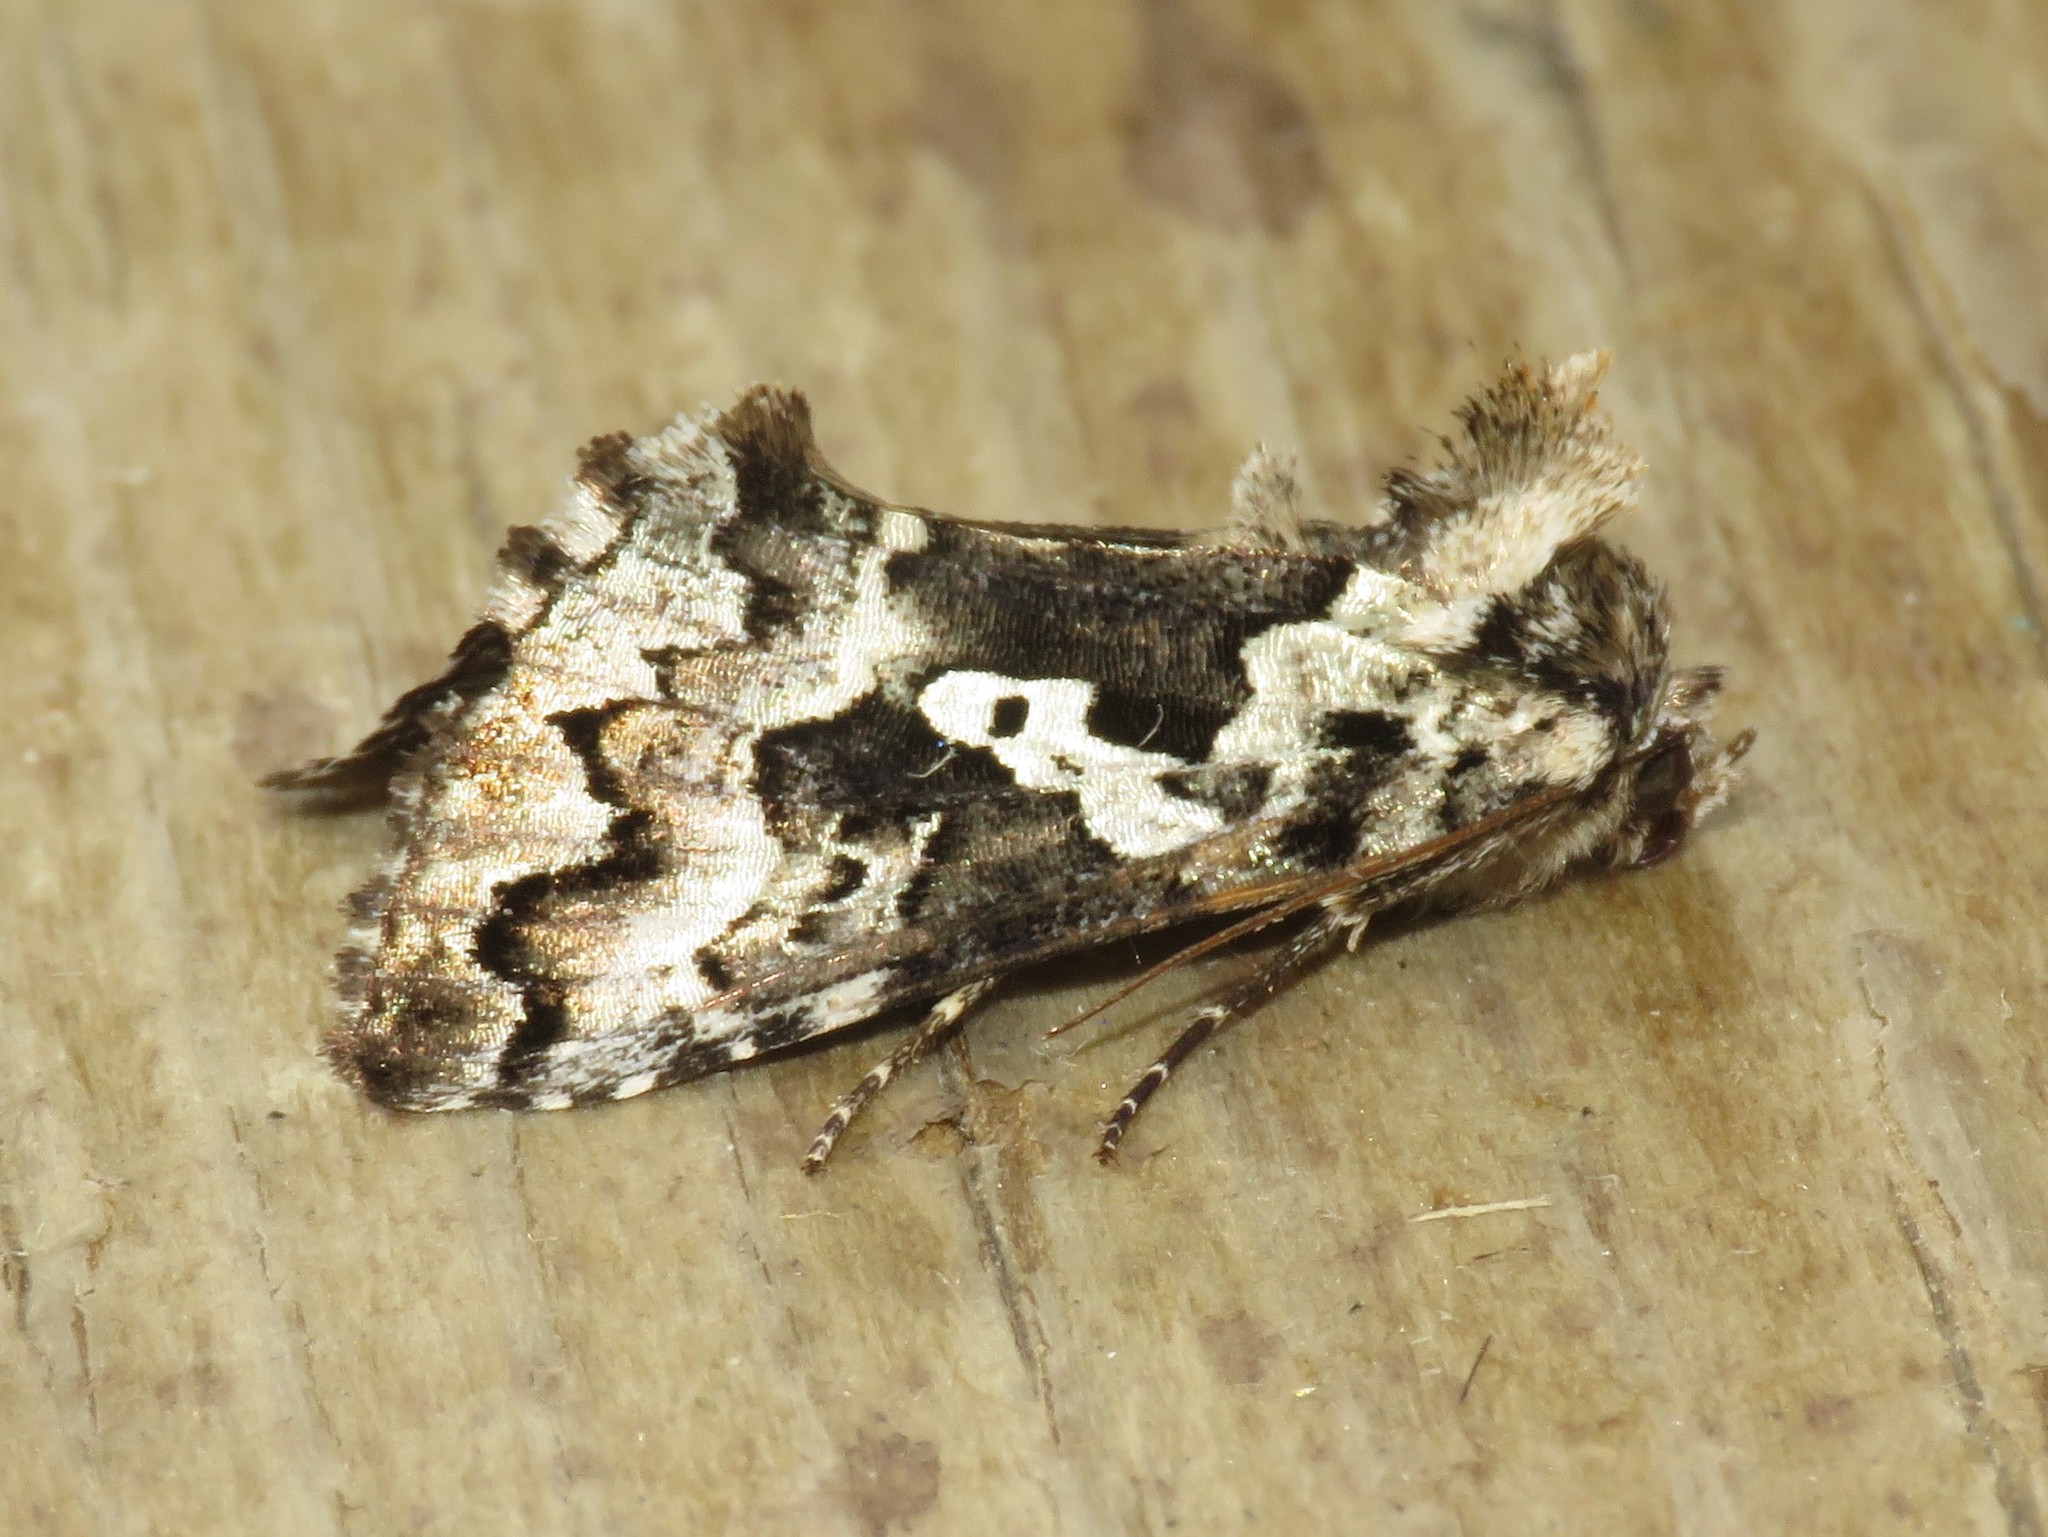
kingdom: Animalia
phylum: Arthropoda
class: Insecta
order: Lepidoptera
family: Noctuidae
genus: Syngrapha
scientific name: Syngrapha rectangula
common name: Angulated cutworm
